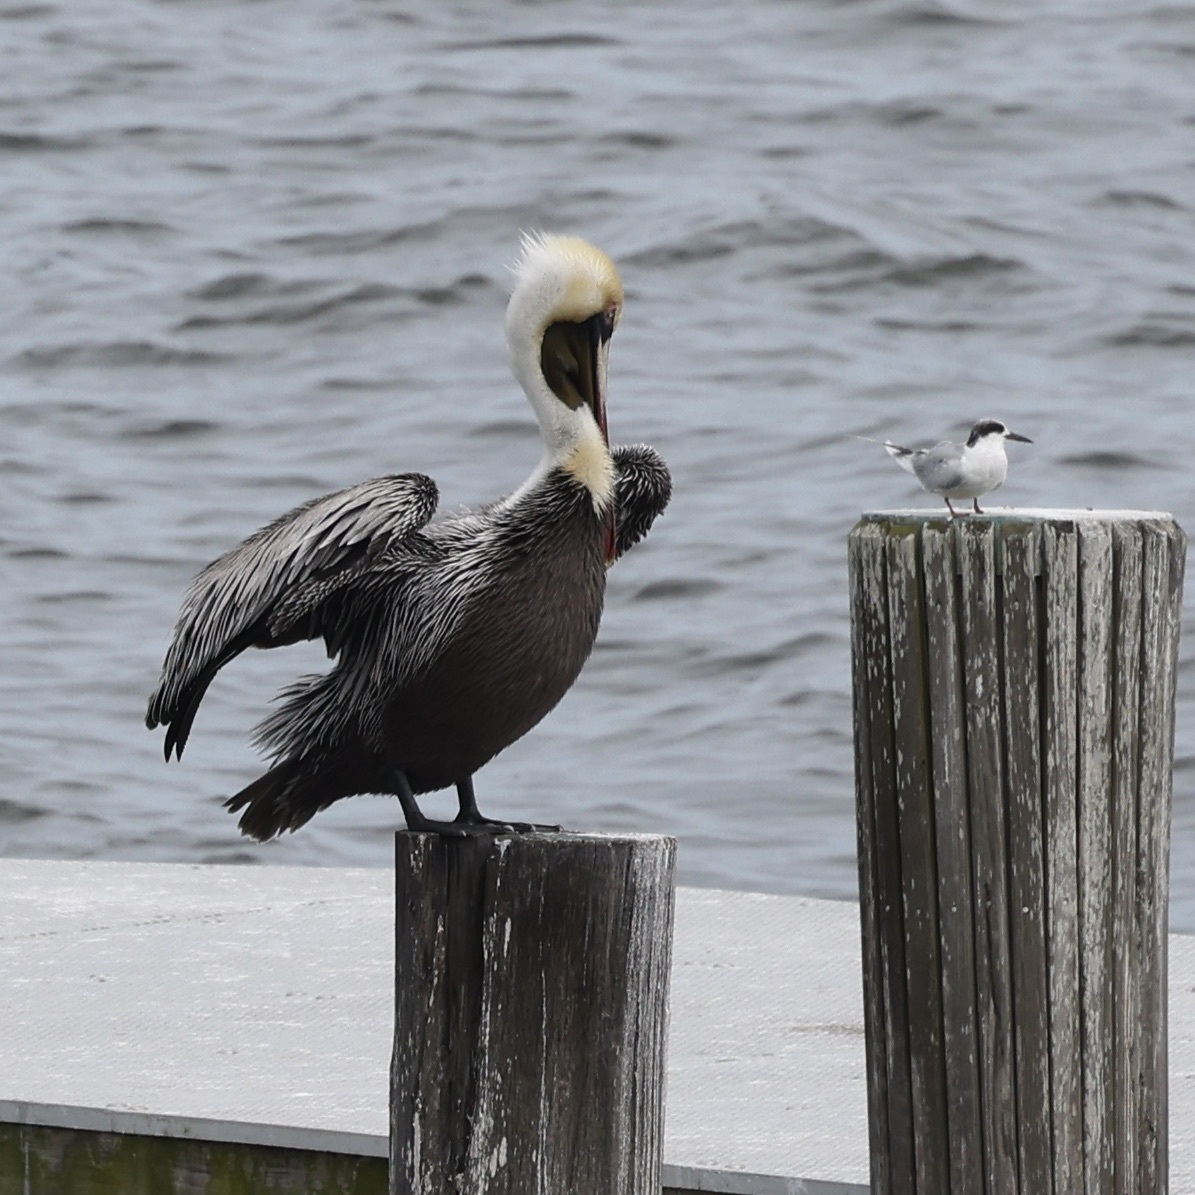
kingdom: Animalia
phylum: Chordata
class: Aves
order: Charadriiformes
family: Laridae
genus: Sterna
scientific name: Sterna forsteri
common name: Forster's tern
